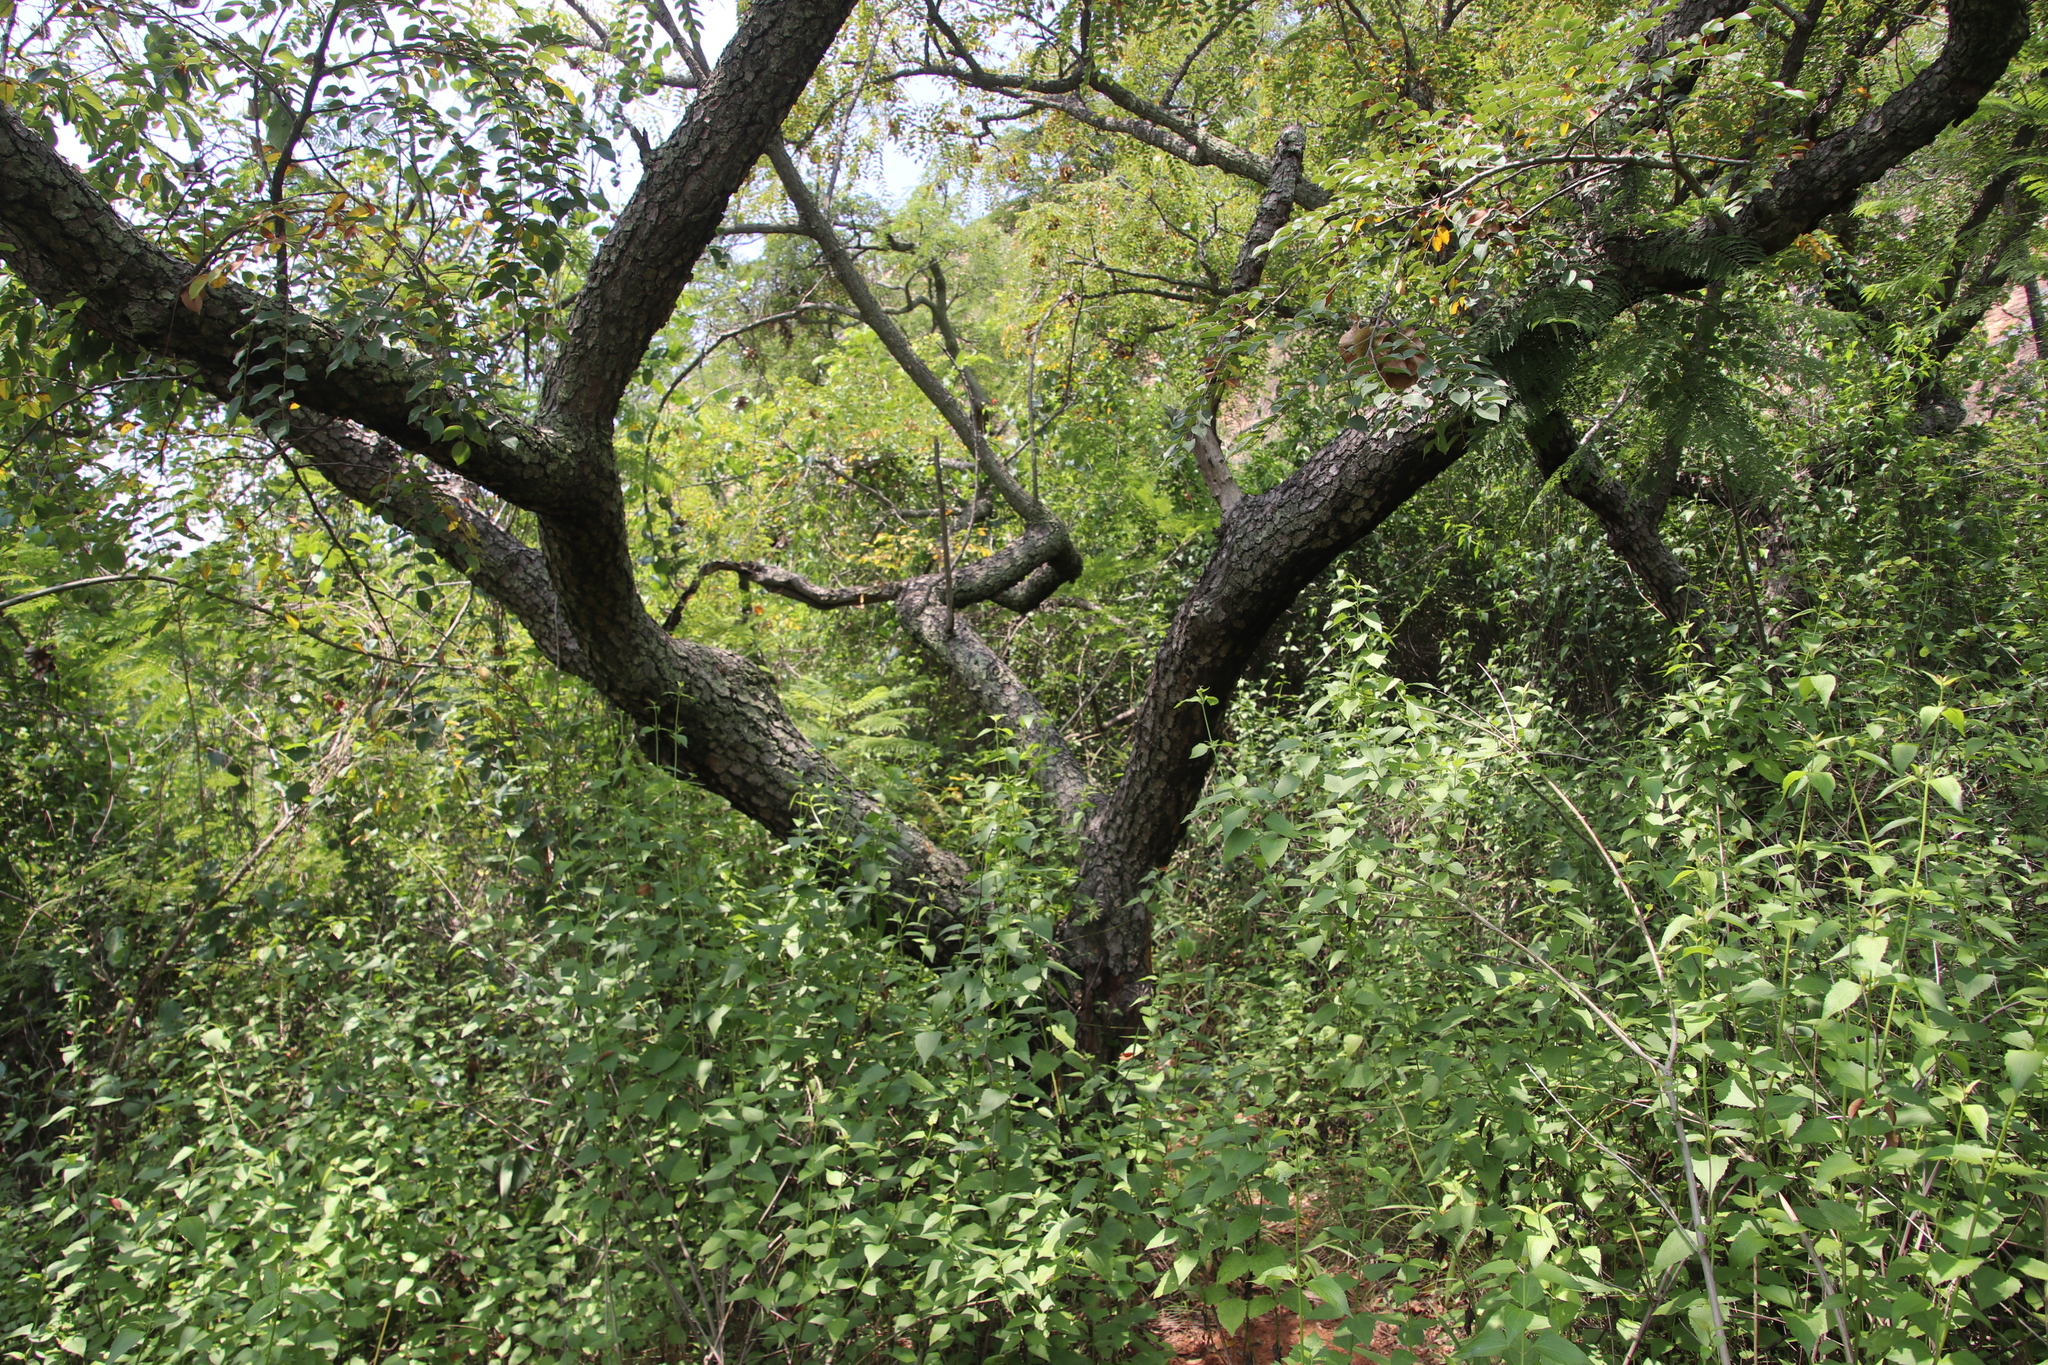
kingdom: Plantae
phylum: Tracheophyta
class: Magnoliopsida
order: Asterales
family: Asteraceae
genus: Chromolaena
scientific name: Chromolaena odorata
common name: Siamweed
